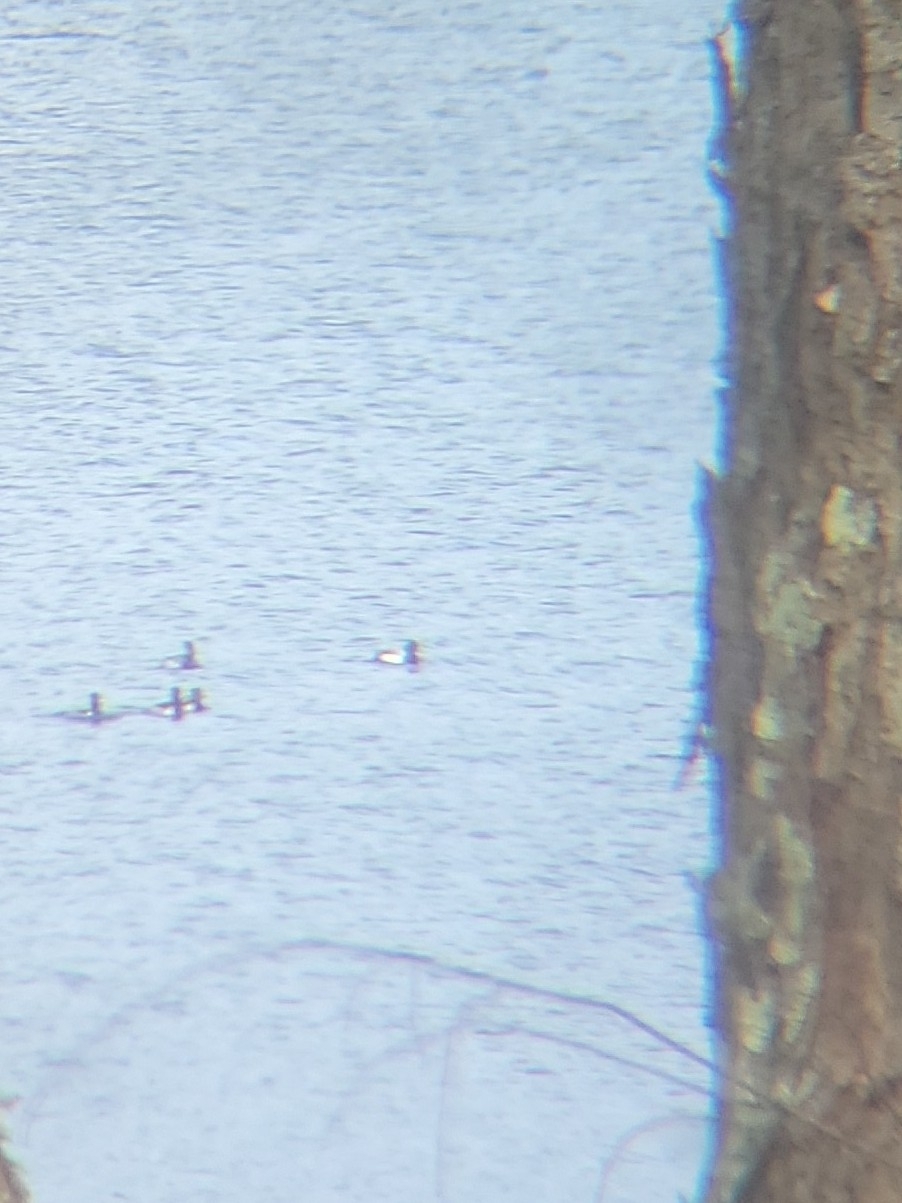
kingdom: Animalia
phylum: Chordata
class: Aves
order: Anseriformes
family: Anatidae
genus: Aythya
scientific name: Aythya affinis
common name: Lesser scaup
